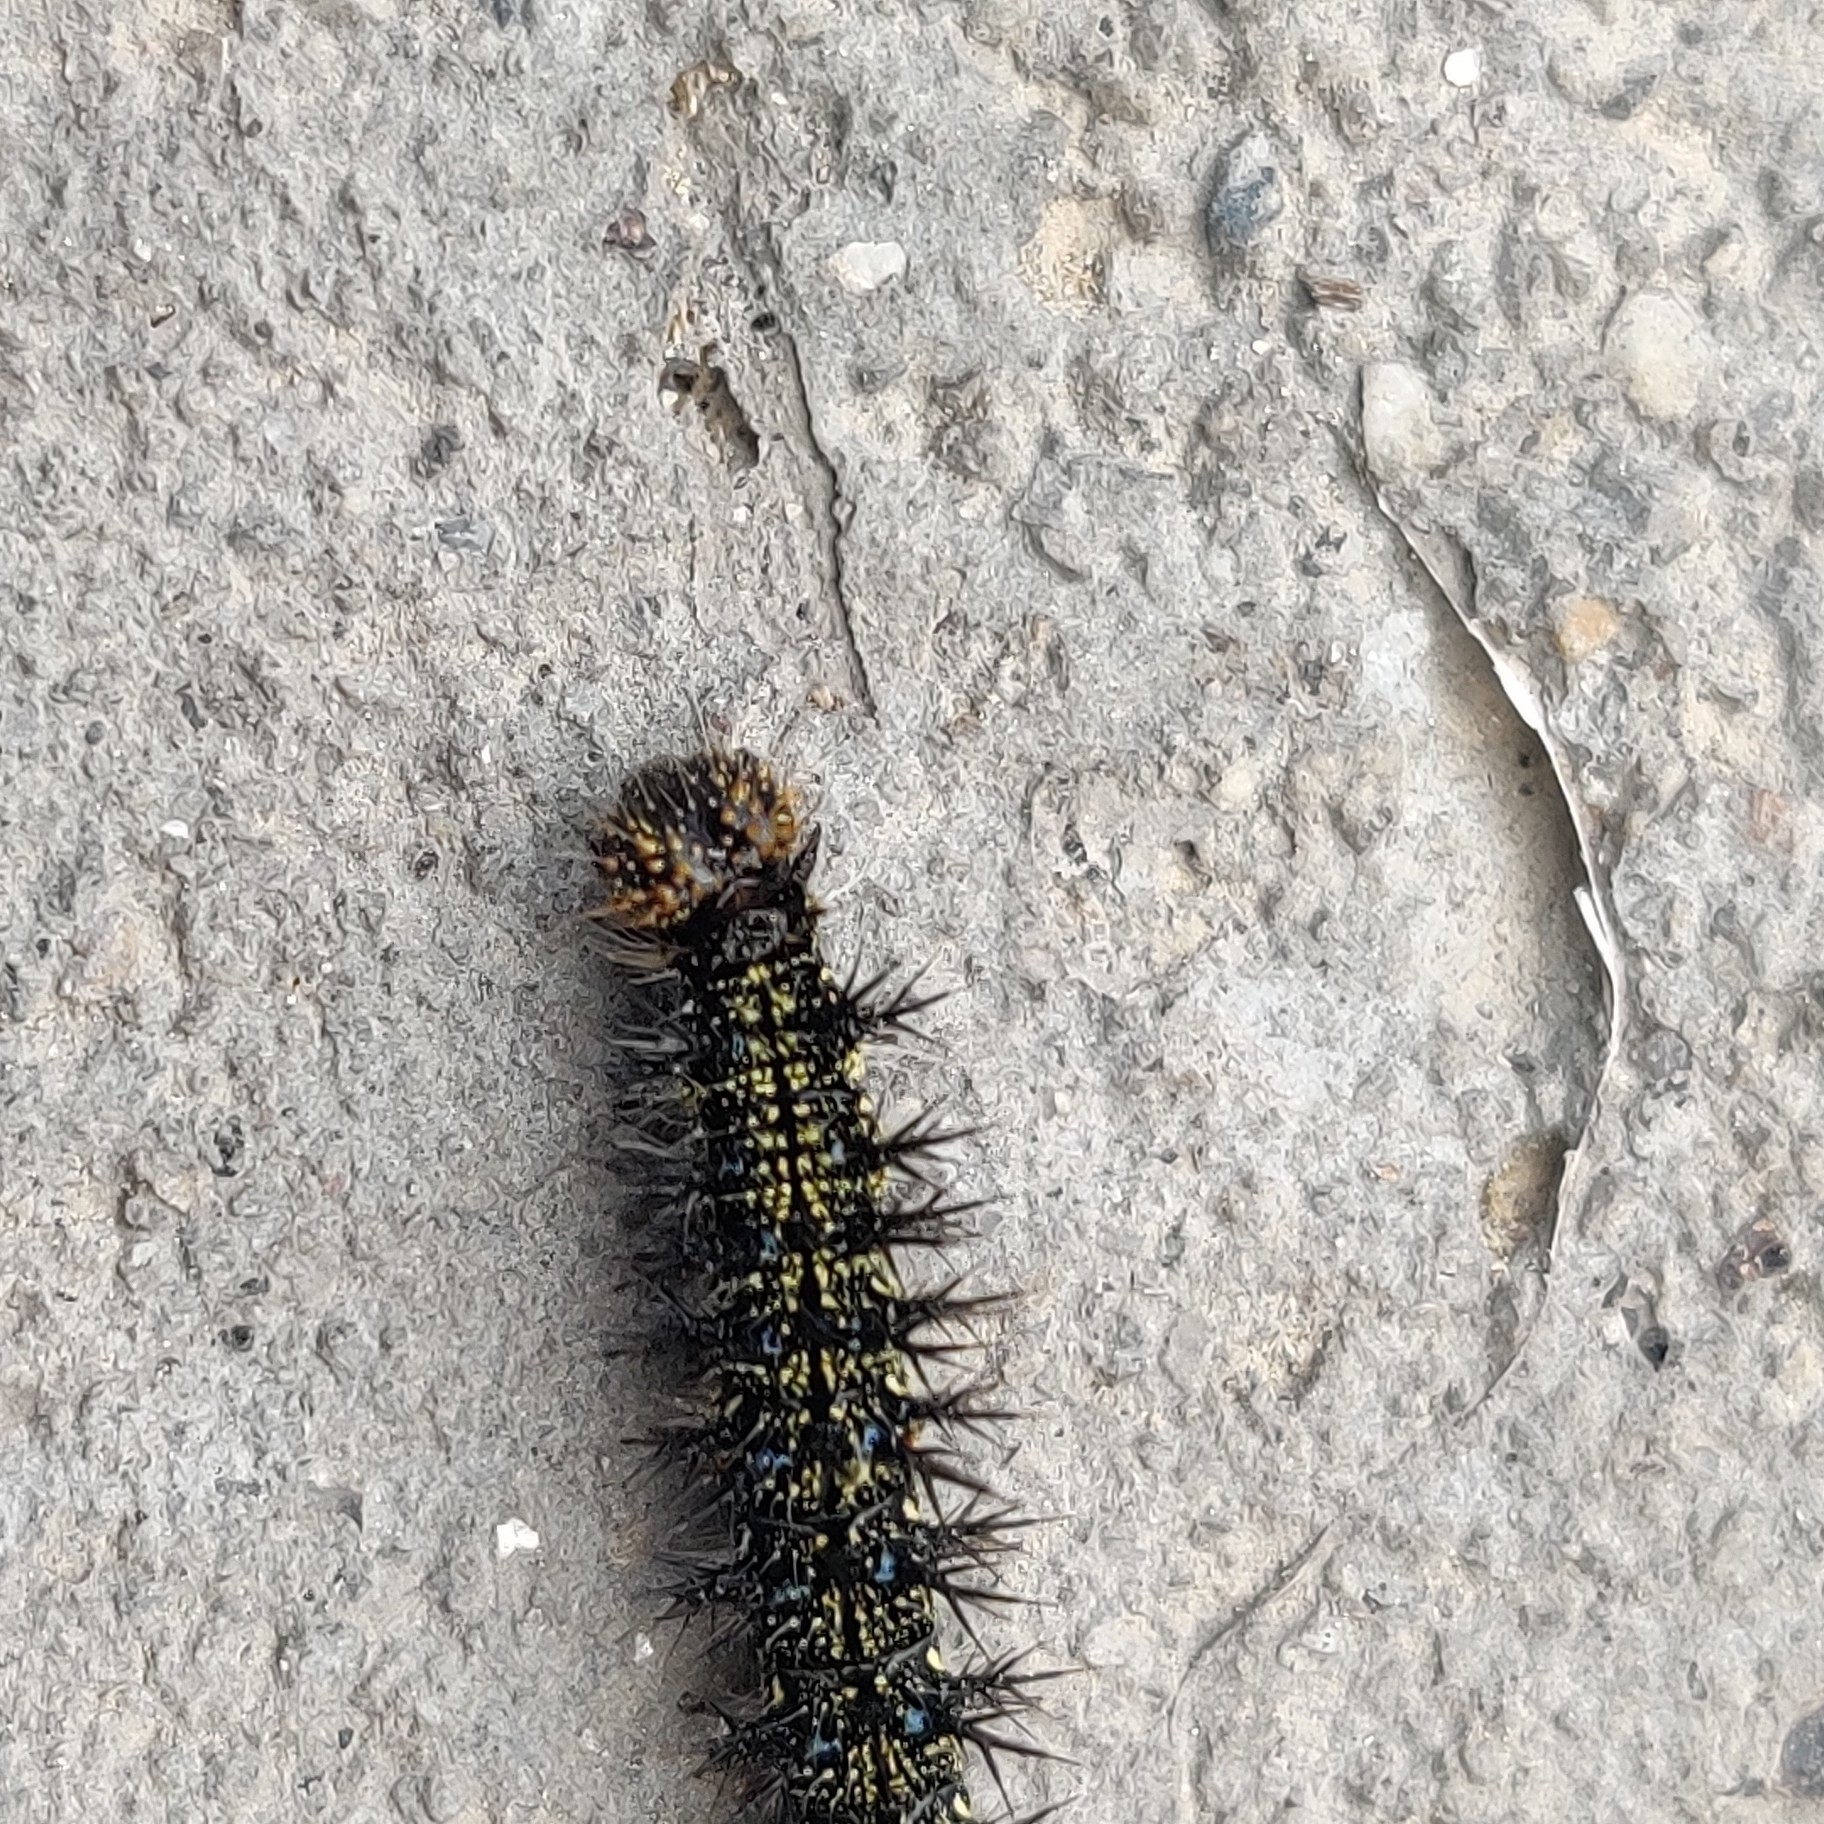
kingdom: Animalia
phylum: Arthropoda
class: Insecta
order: Lepidoptera
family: Nymphalidae
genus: Aglais
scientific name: Aglais caschmirensis
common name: Indian tortoiseshell
